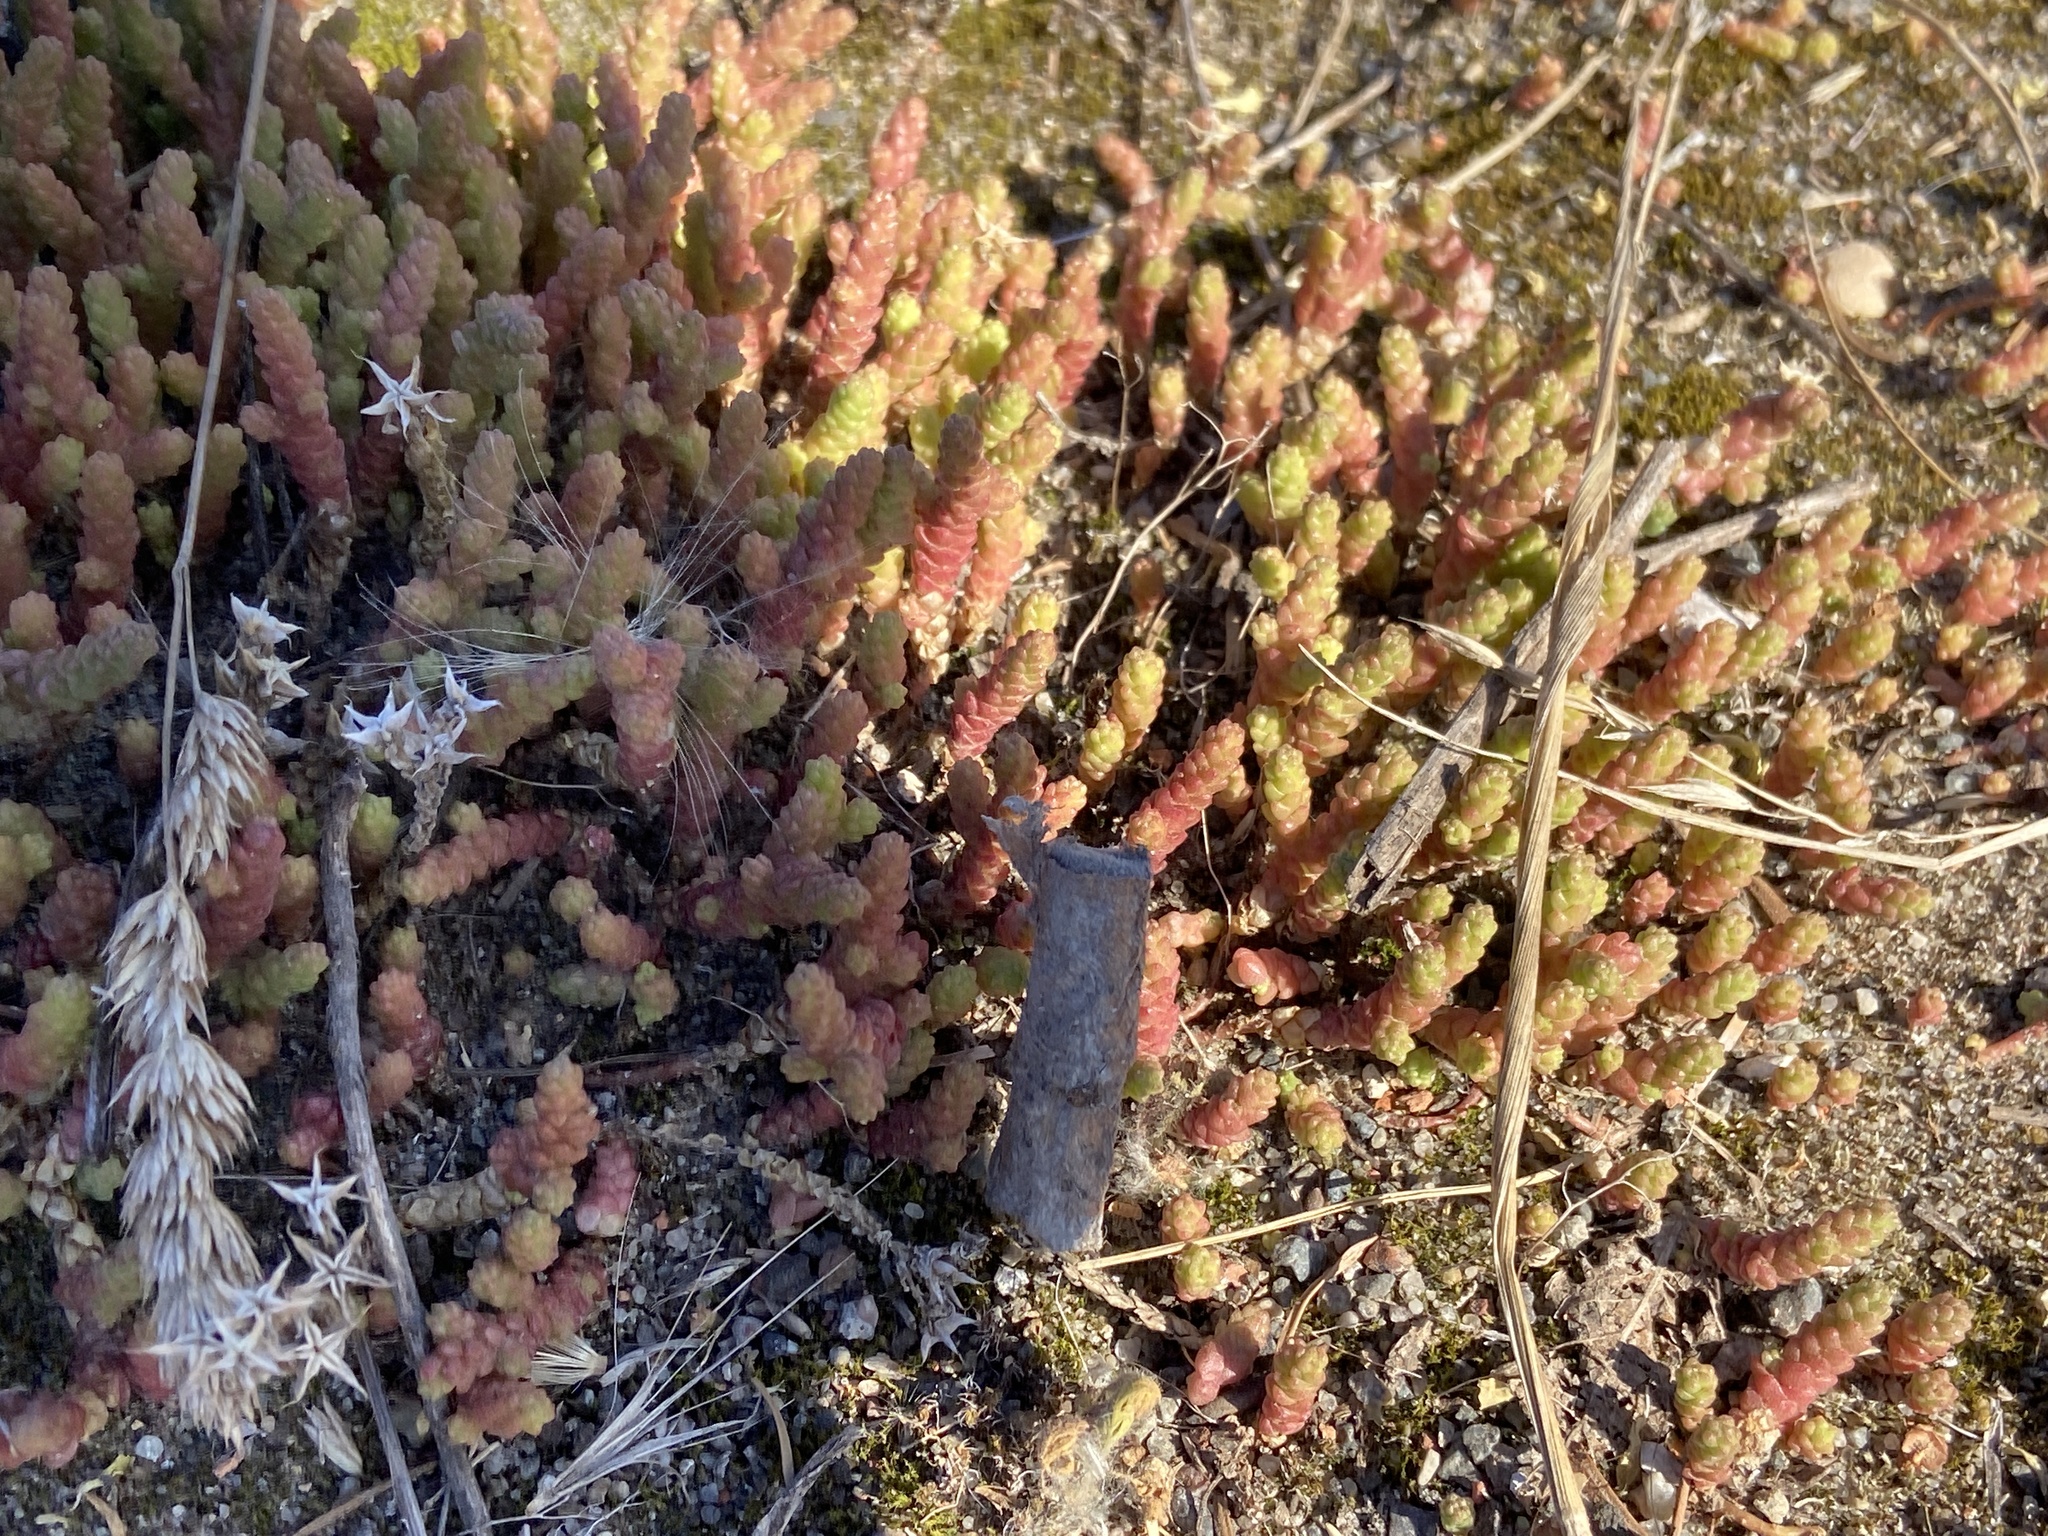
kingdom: Plantae
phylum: Tracheophyta
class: Magnoliopsida
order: Saxifragales
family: Crassulaceae
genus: Sedum
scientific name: Sedum acre
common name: Biting stonecrop
